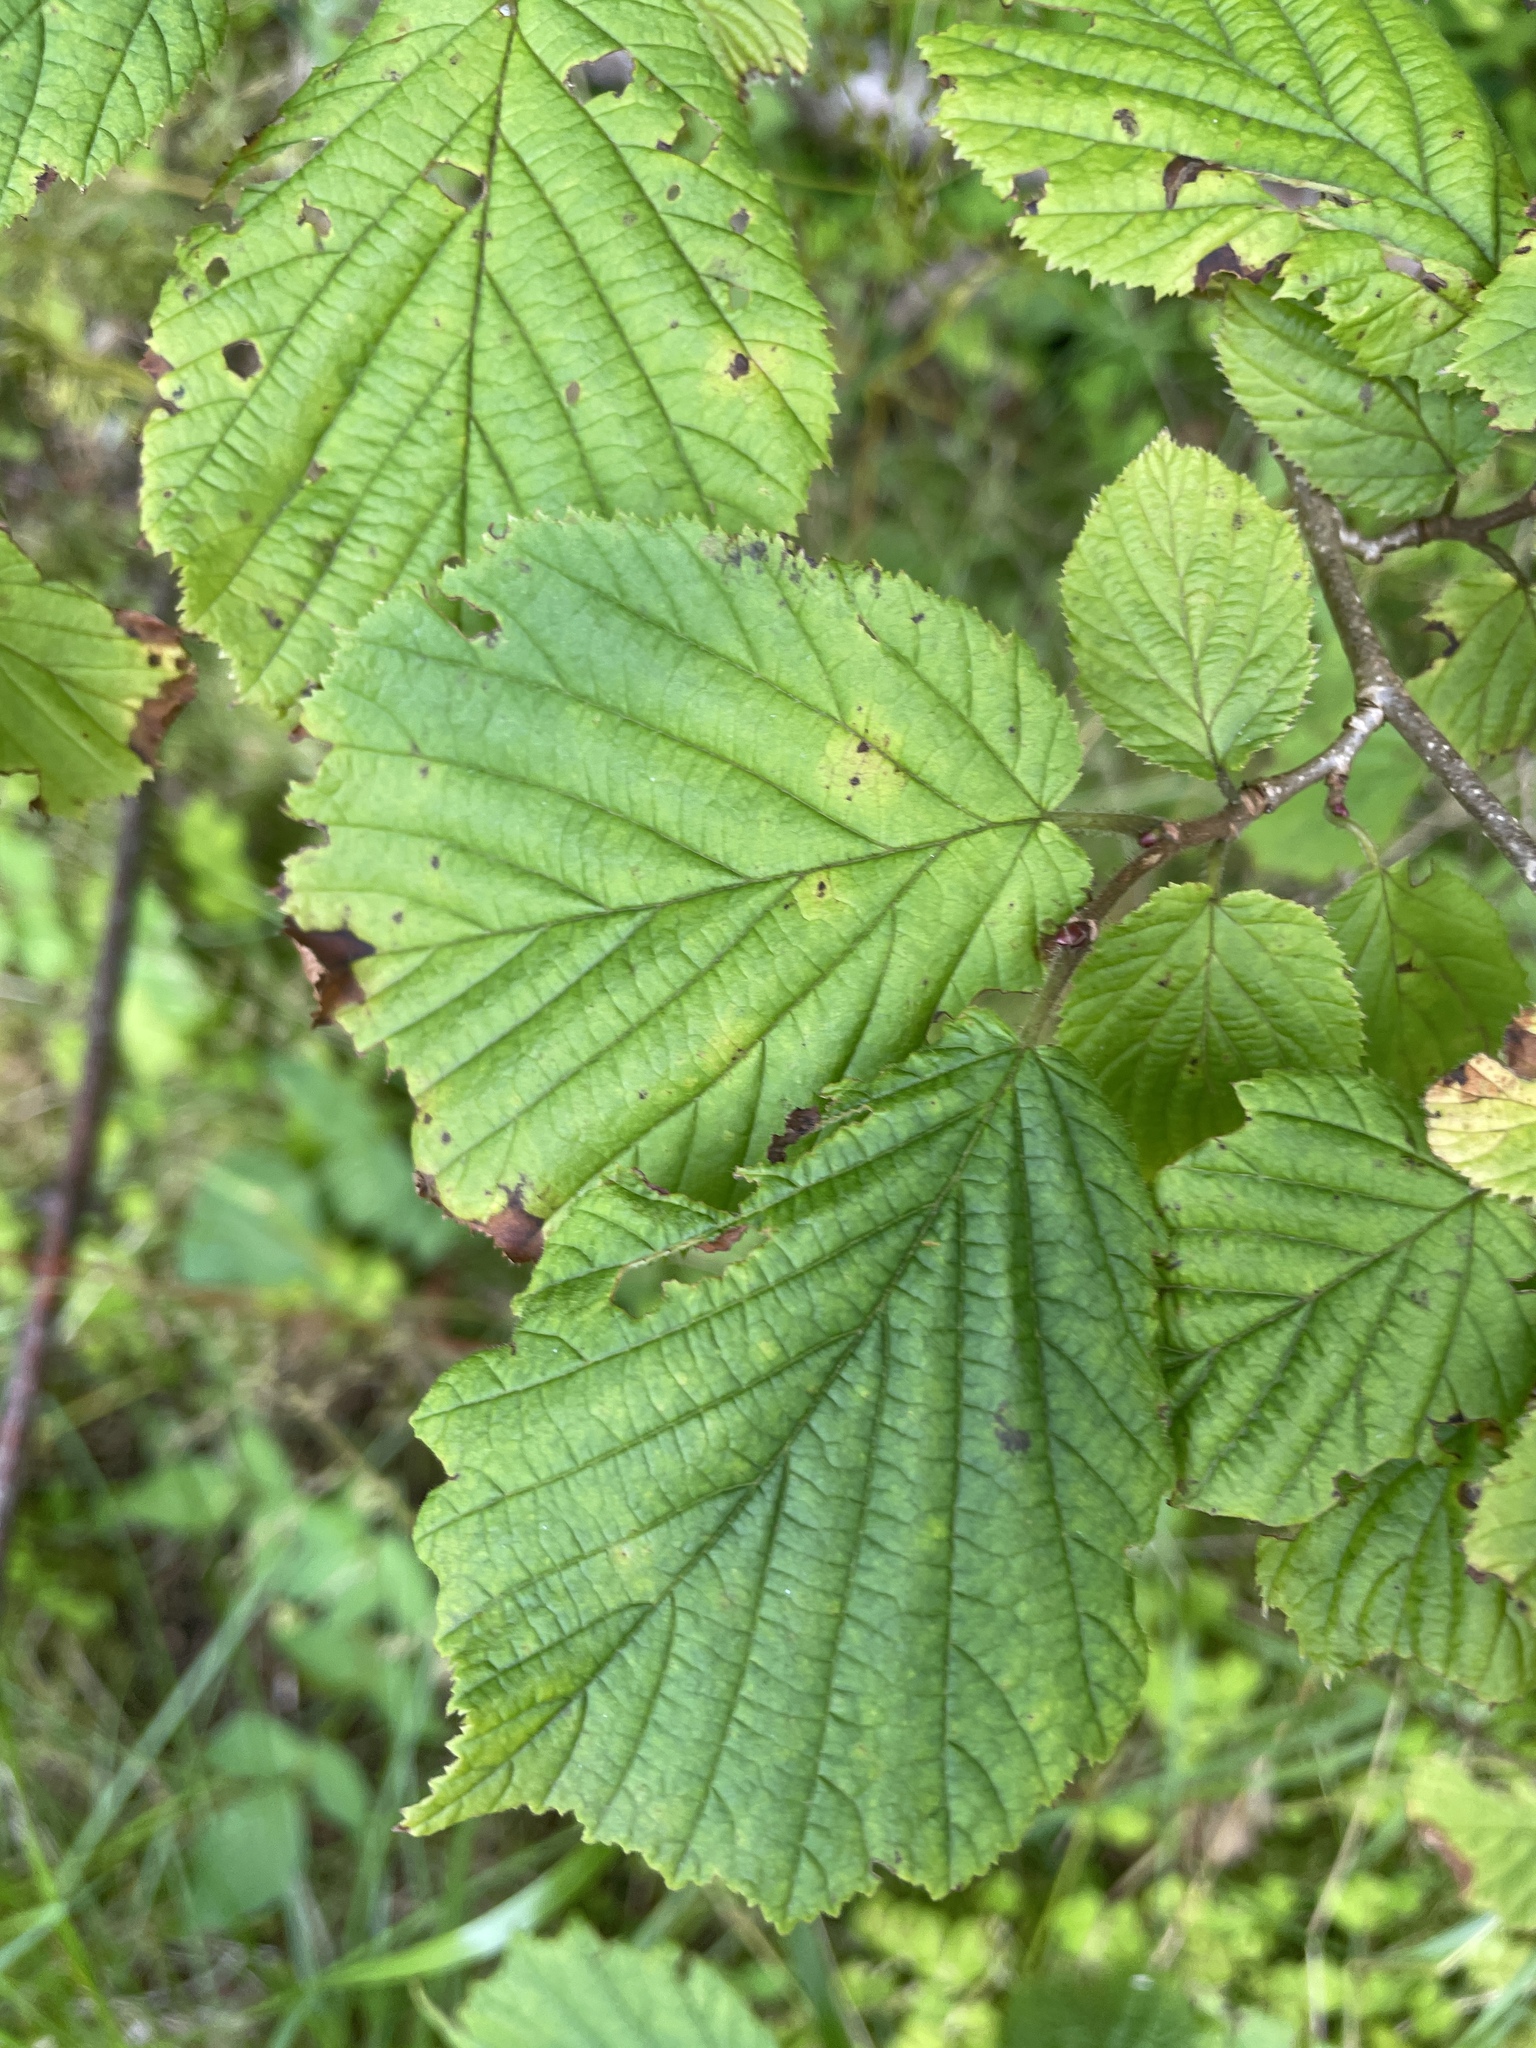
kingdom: Plantae
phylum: Tracheophyta
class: Magnoliopsida
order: Fagales
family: Betulaceae
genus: Corylus
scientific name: Corylus avellana
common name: European hazel
